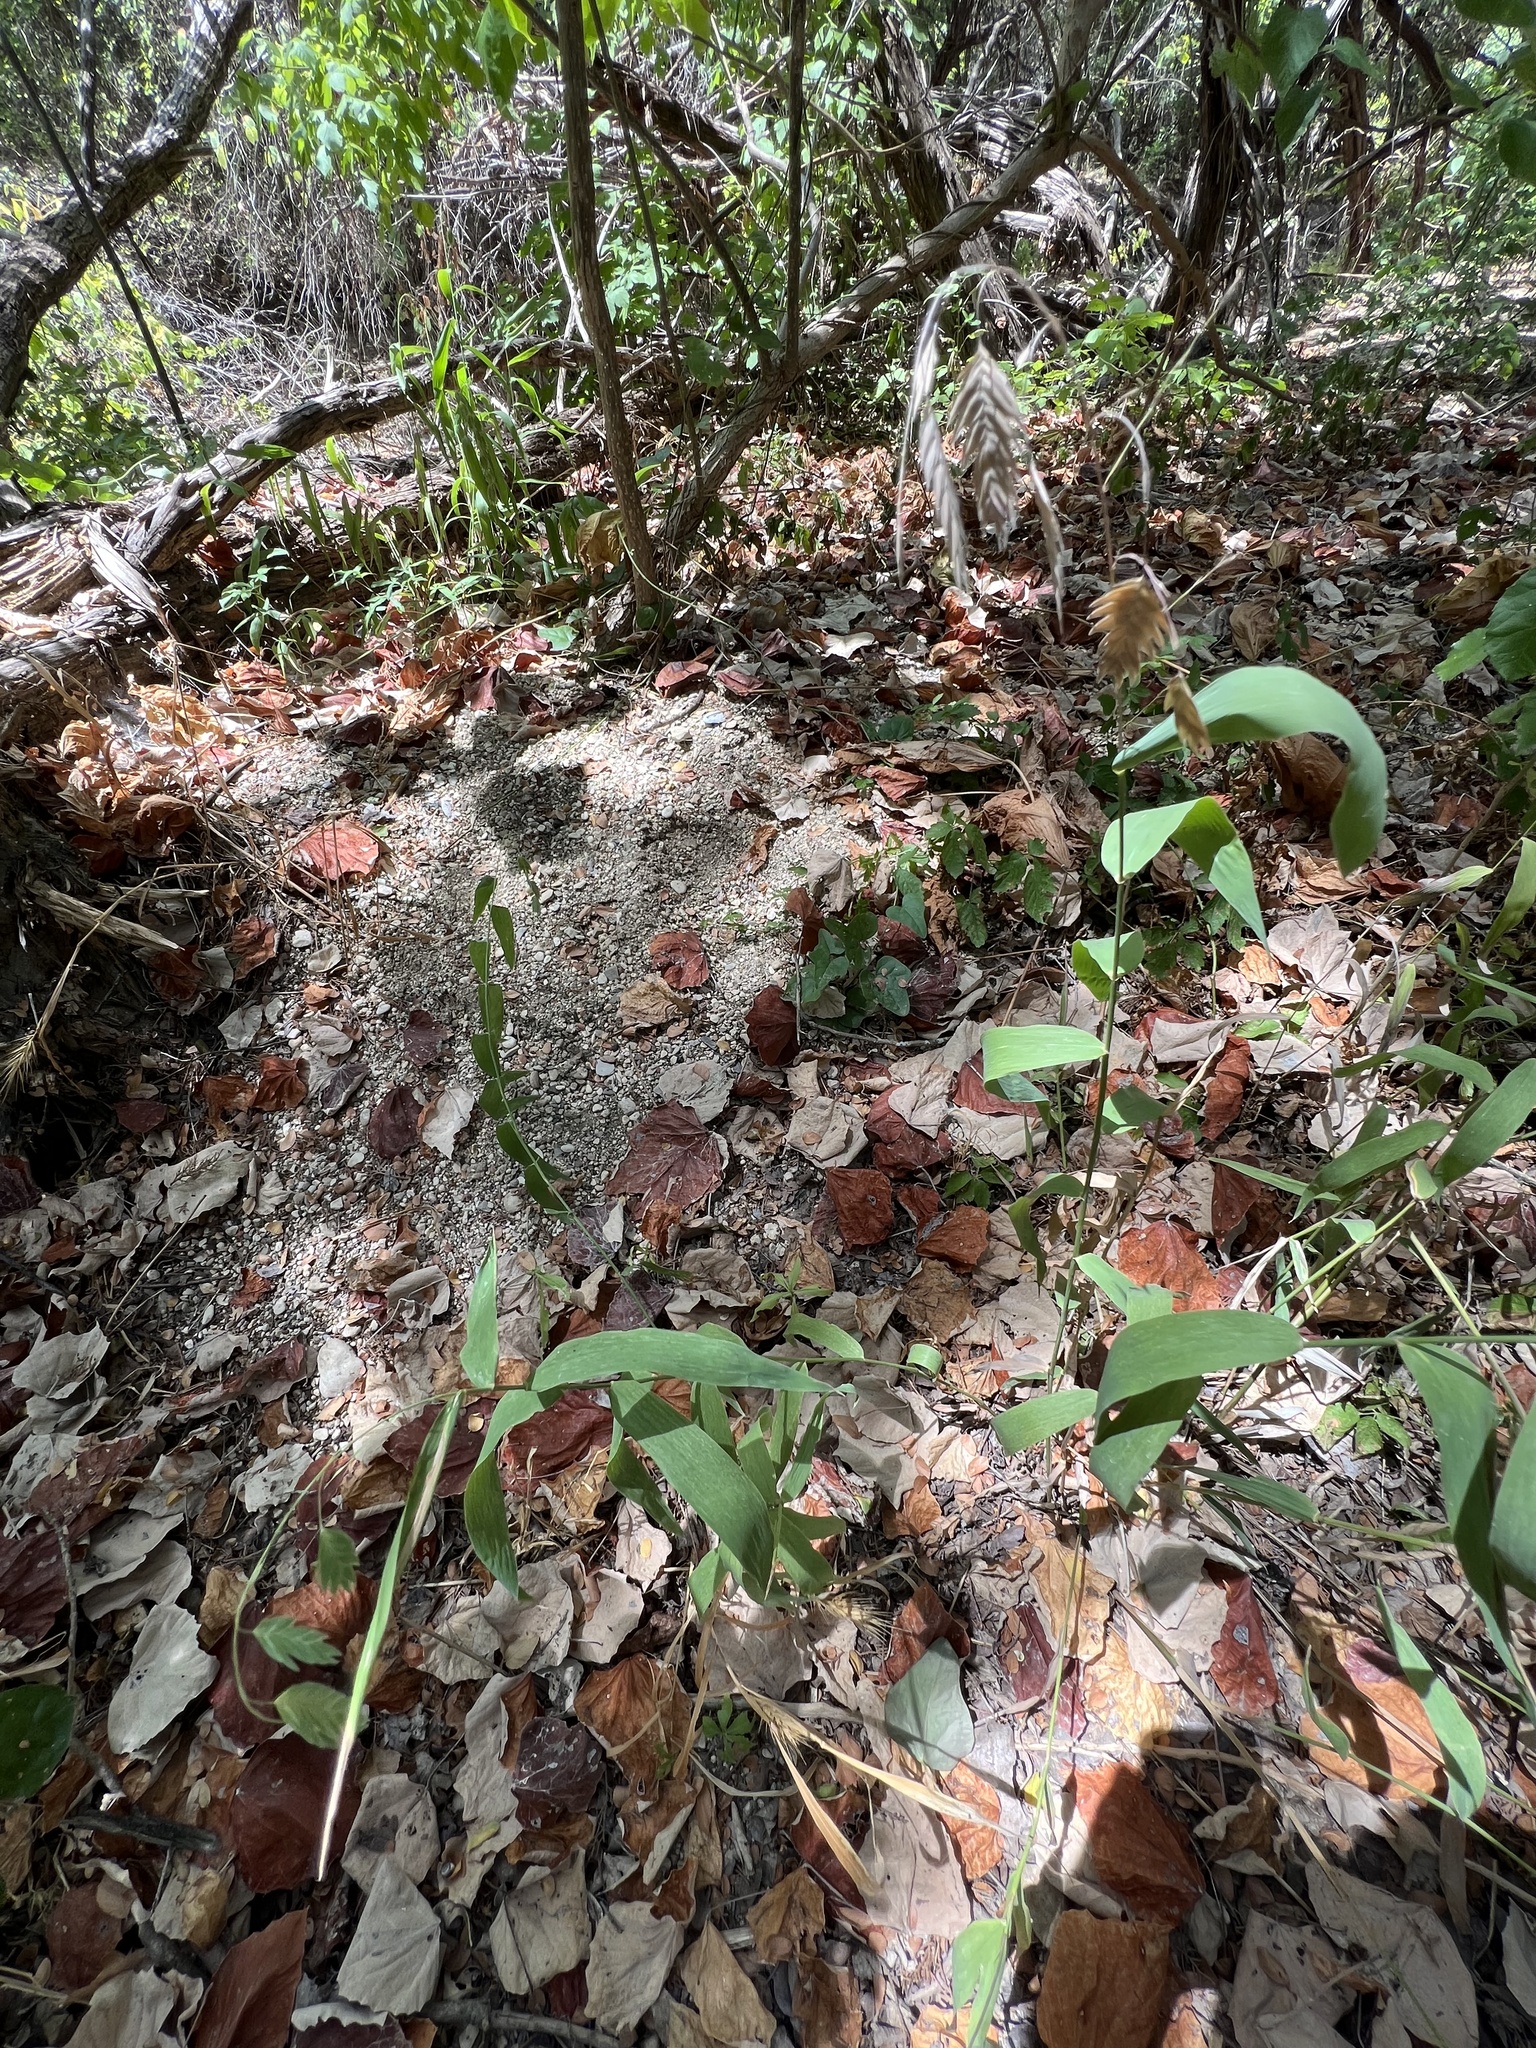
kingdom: Plantae
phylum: Tracheophyta
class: Liliopsida
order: Poales
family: Poaceae
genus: Chasmanthium
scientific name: Chasmanthium latifolium
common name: Broad-leaved chasmanthium
